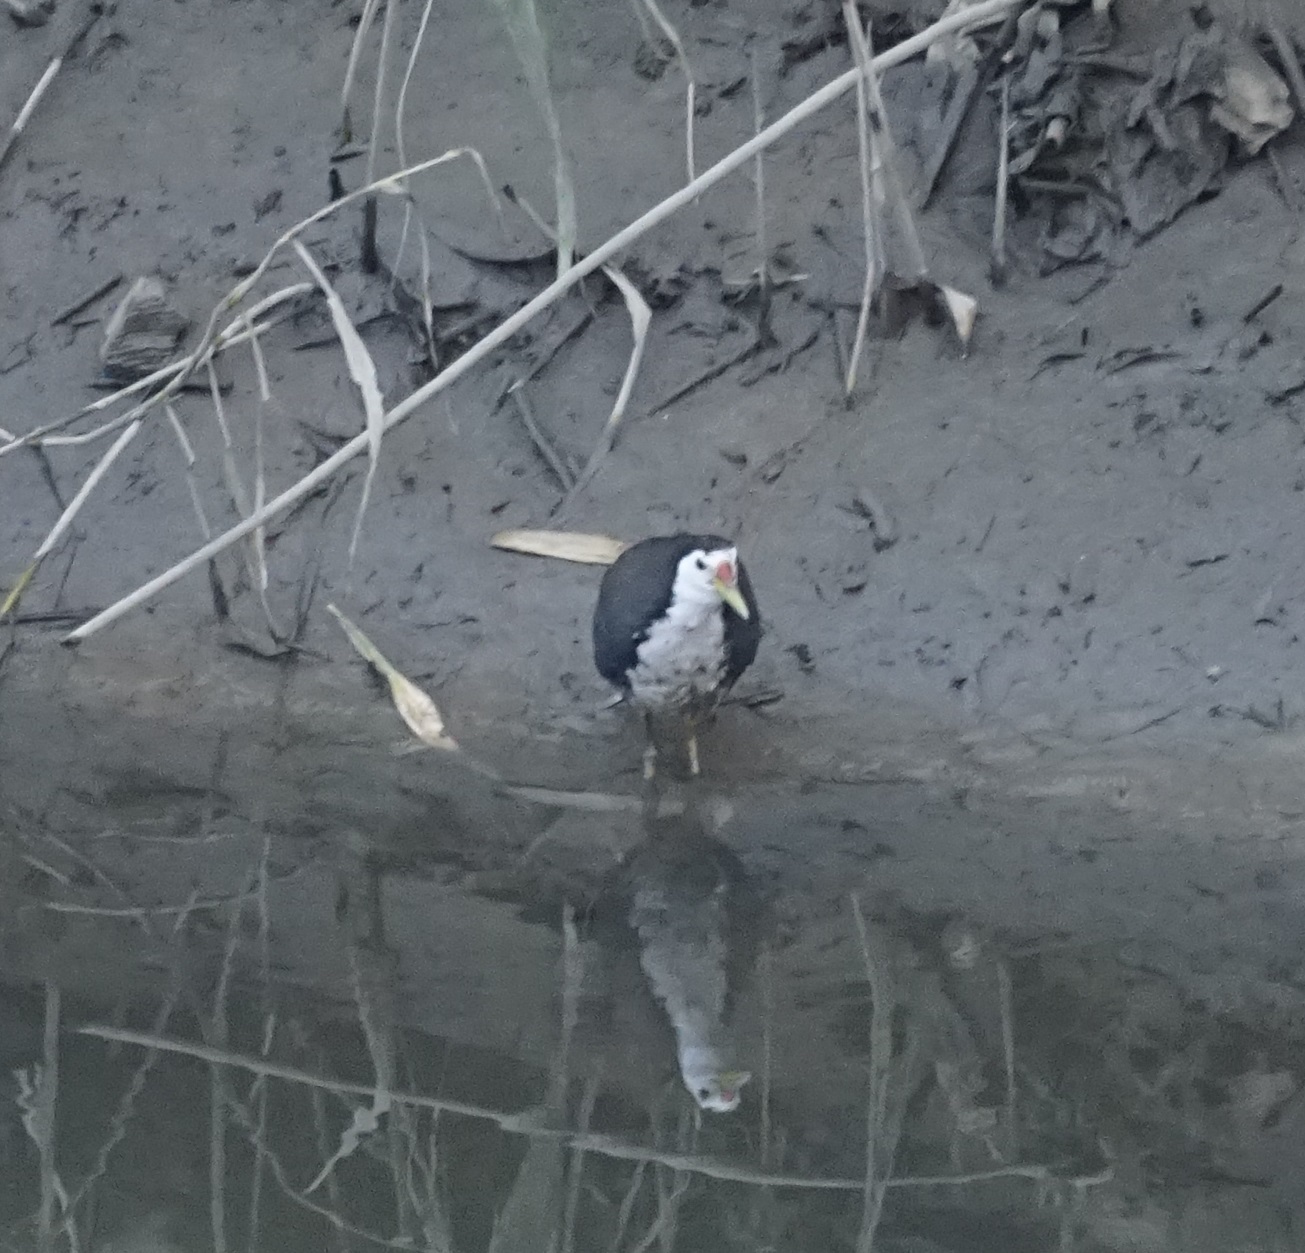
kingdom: Animalia
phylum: Chordata
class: Aves
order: Gruiformes
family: Rallidae
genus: Amaurornis
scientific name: Amaurornis phoenicurus
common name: White-breasted waterhen
